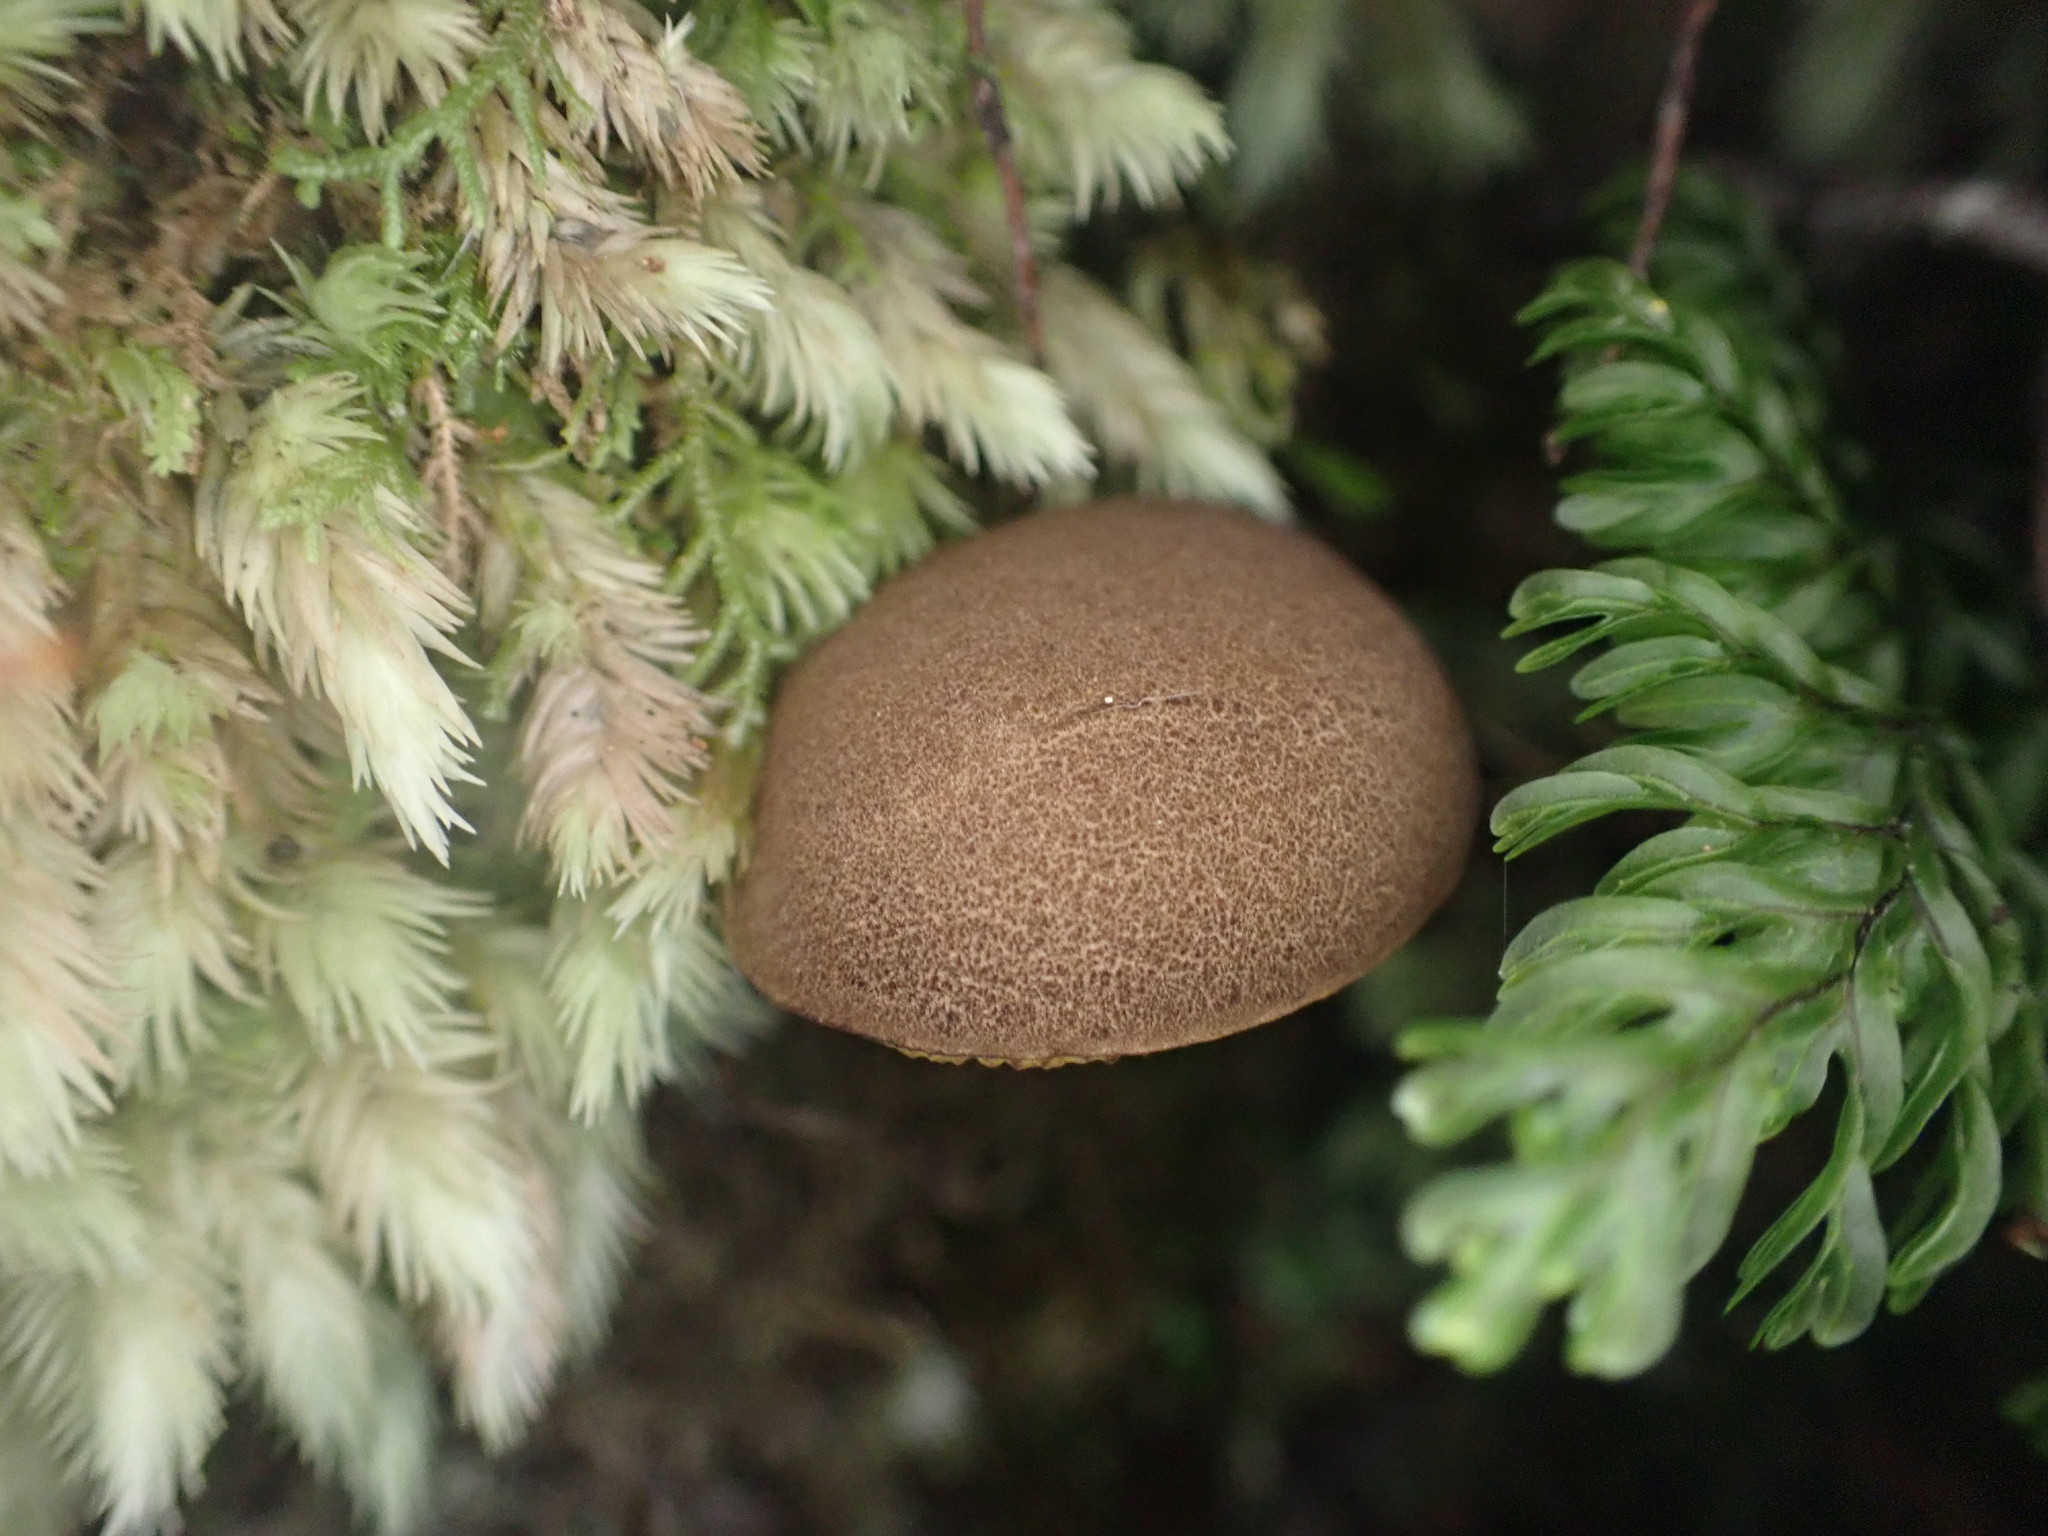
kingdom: Fungi
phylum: Basidiomycota
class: Agaricomycetes
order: Boletales
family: Boletaceae
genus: Xerocomus
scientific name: Xerocomus nothofagi
